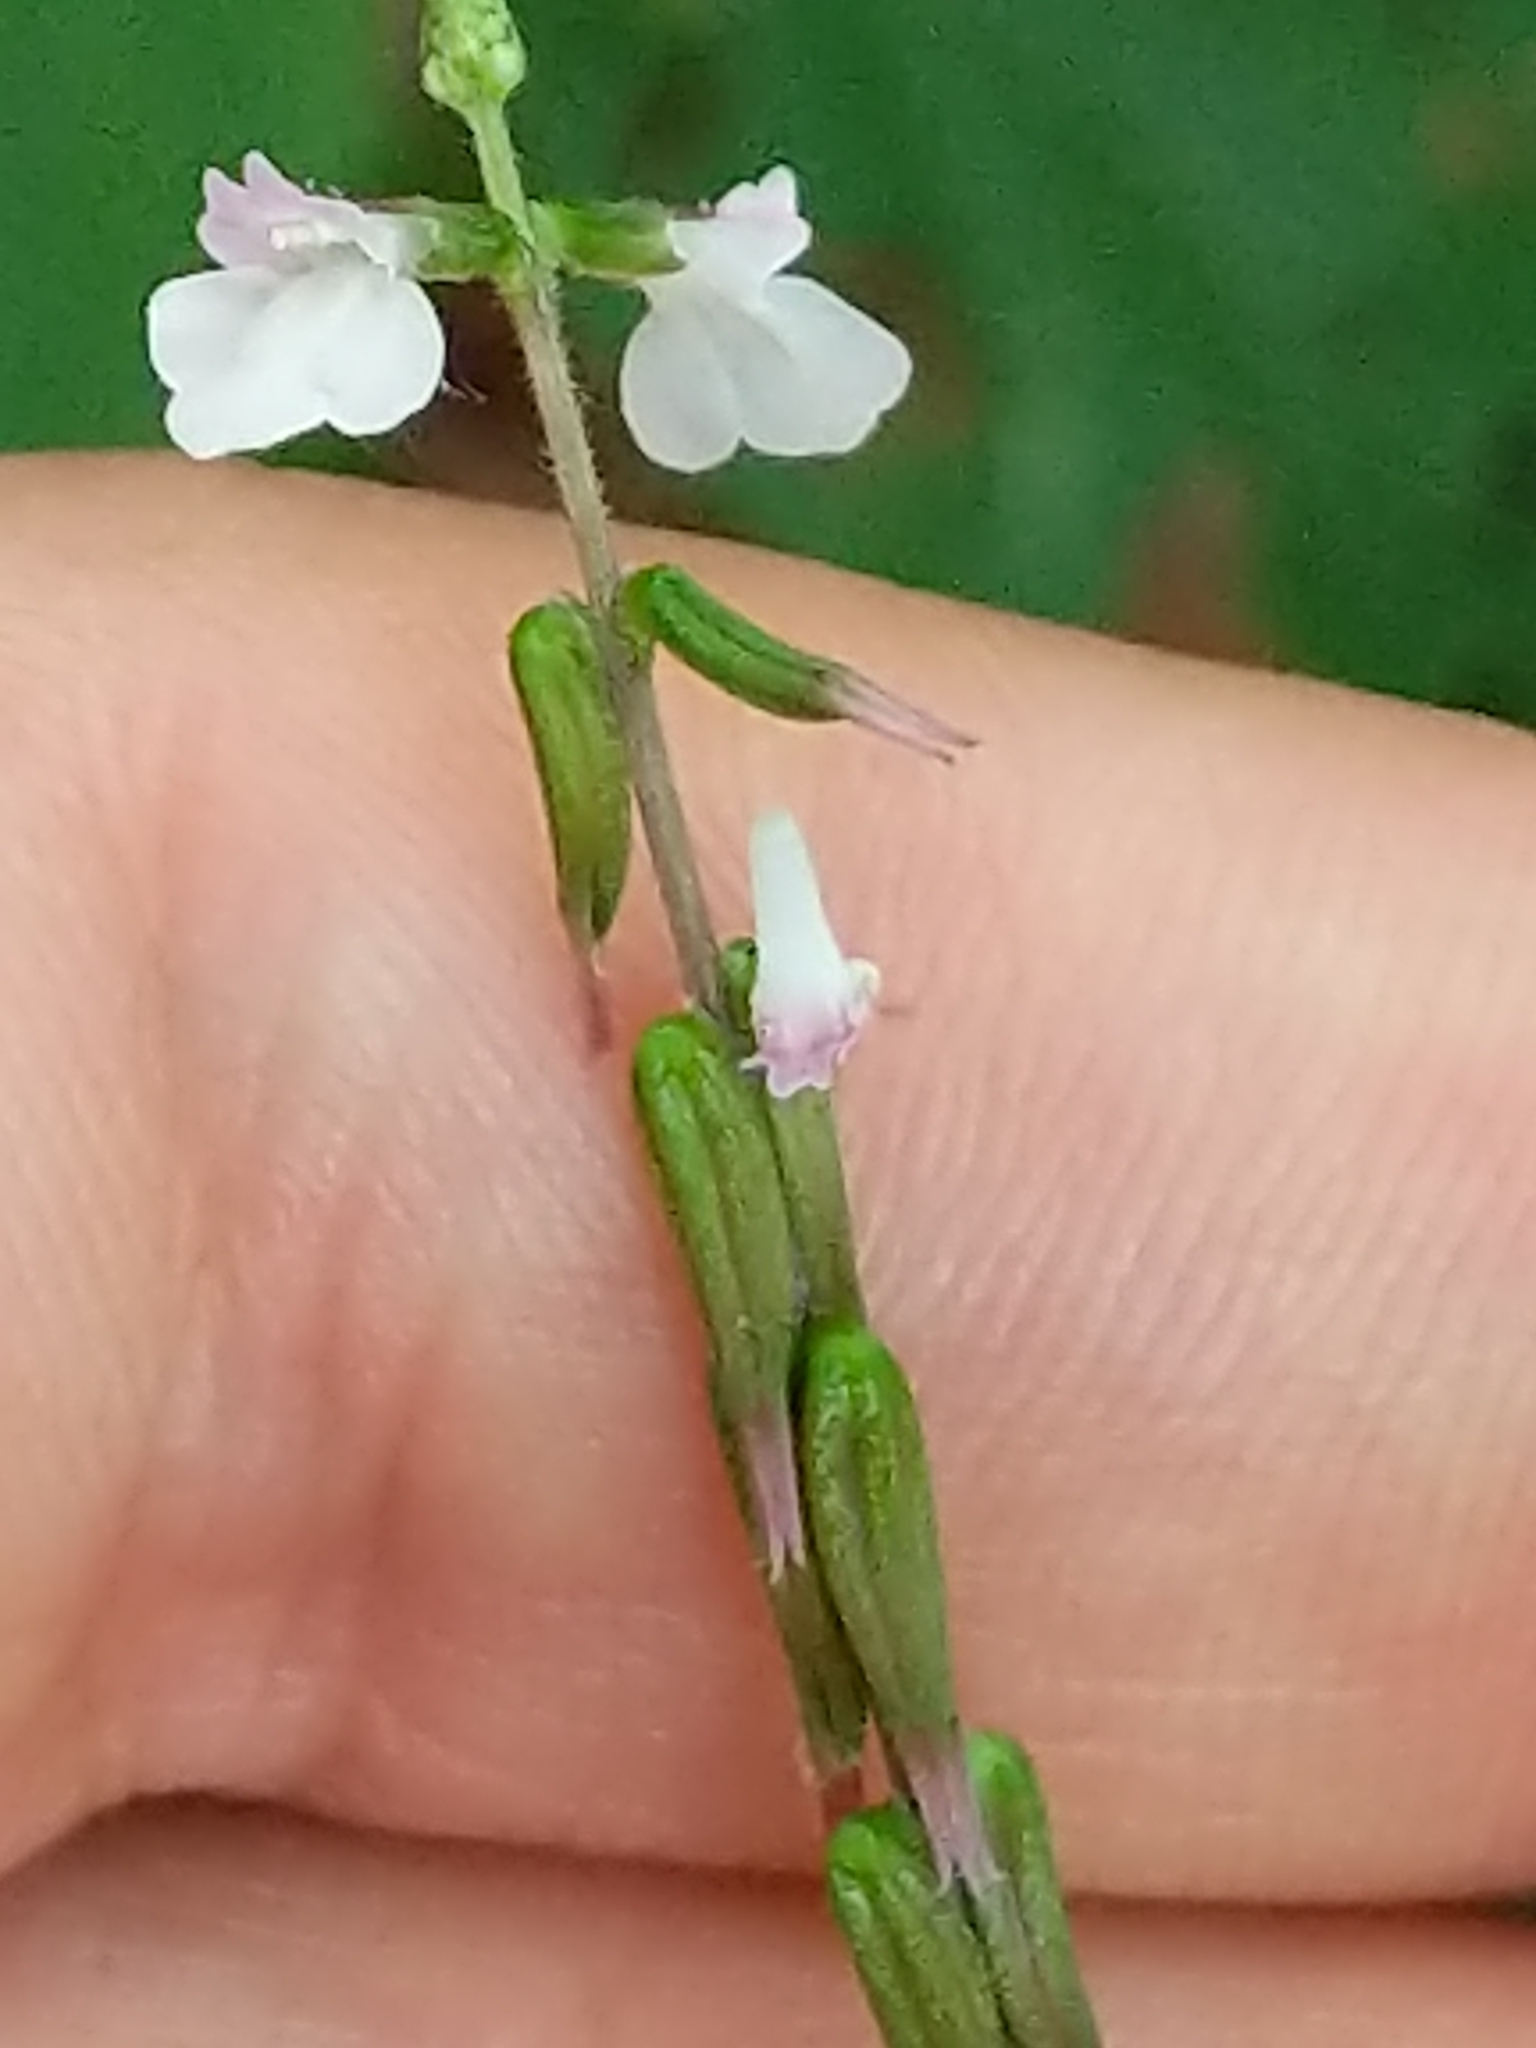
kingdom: Plantae
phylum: Tracheophyta
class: Magnoliopsida
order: Lamiales
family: Phrymaceae
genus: Phryma
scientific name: Phryma leptostachya
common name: American lopseed
